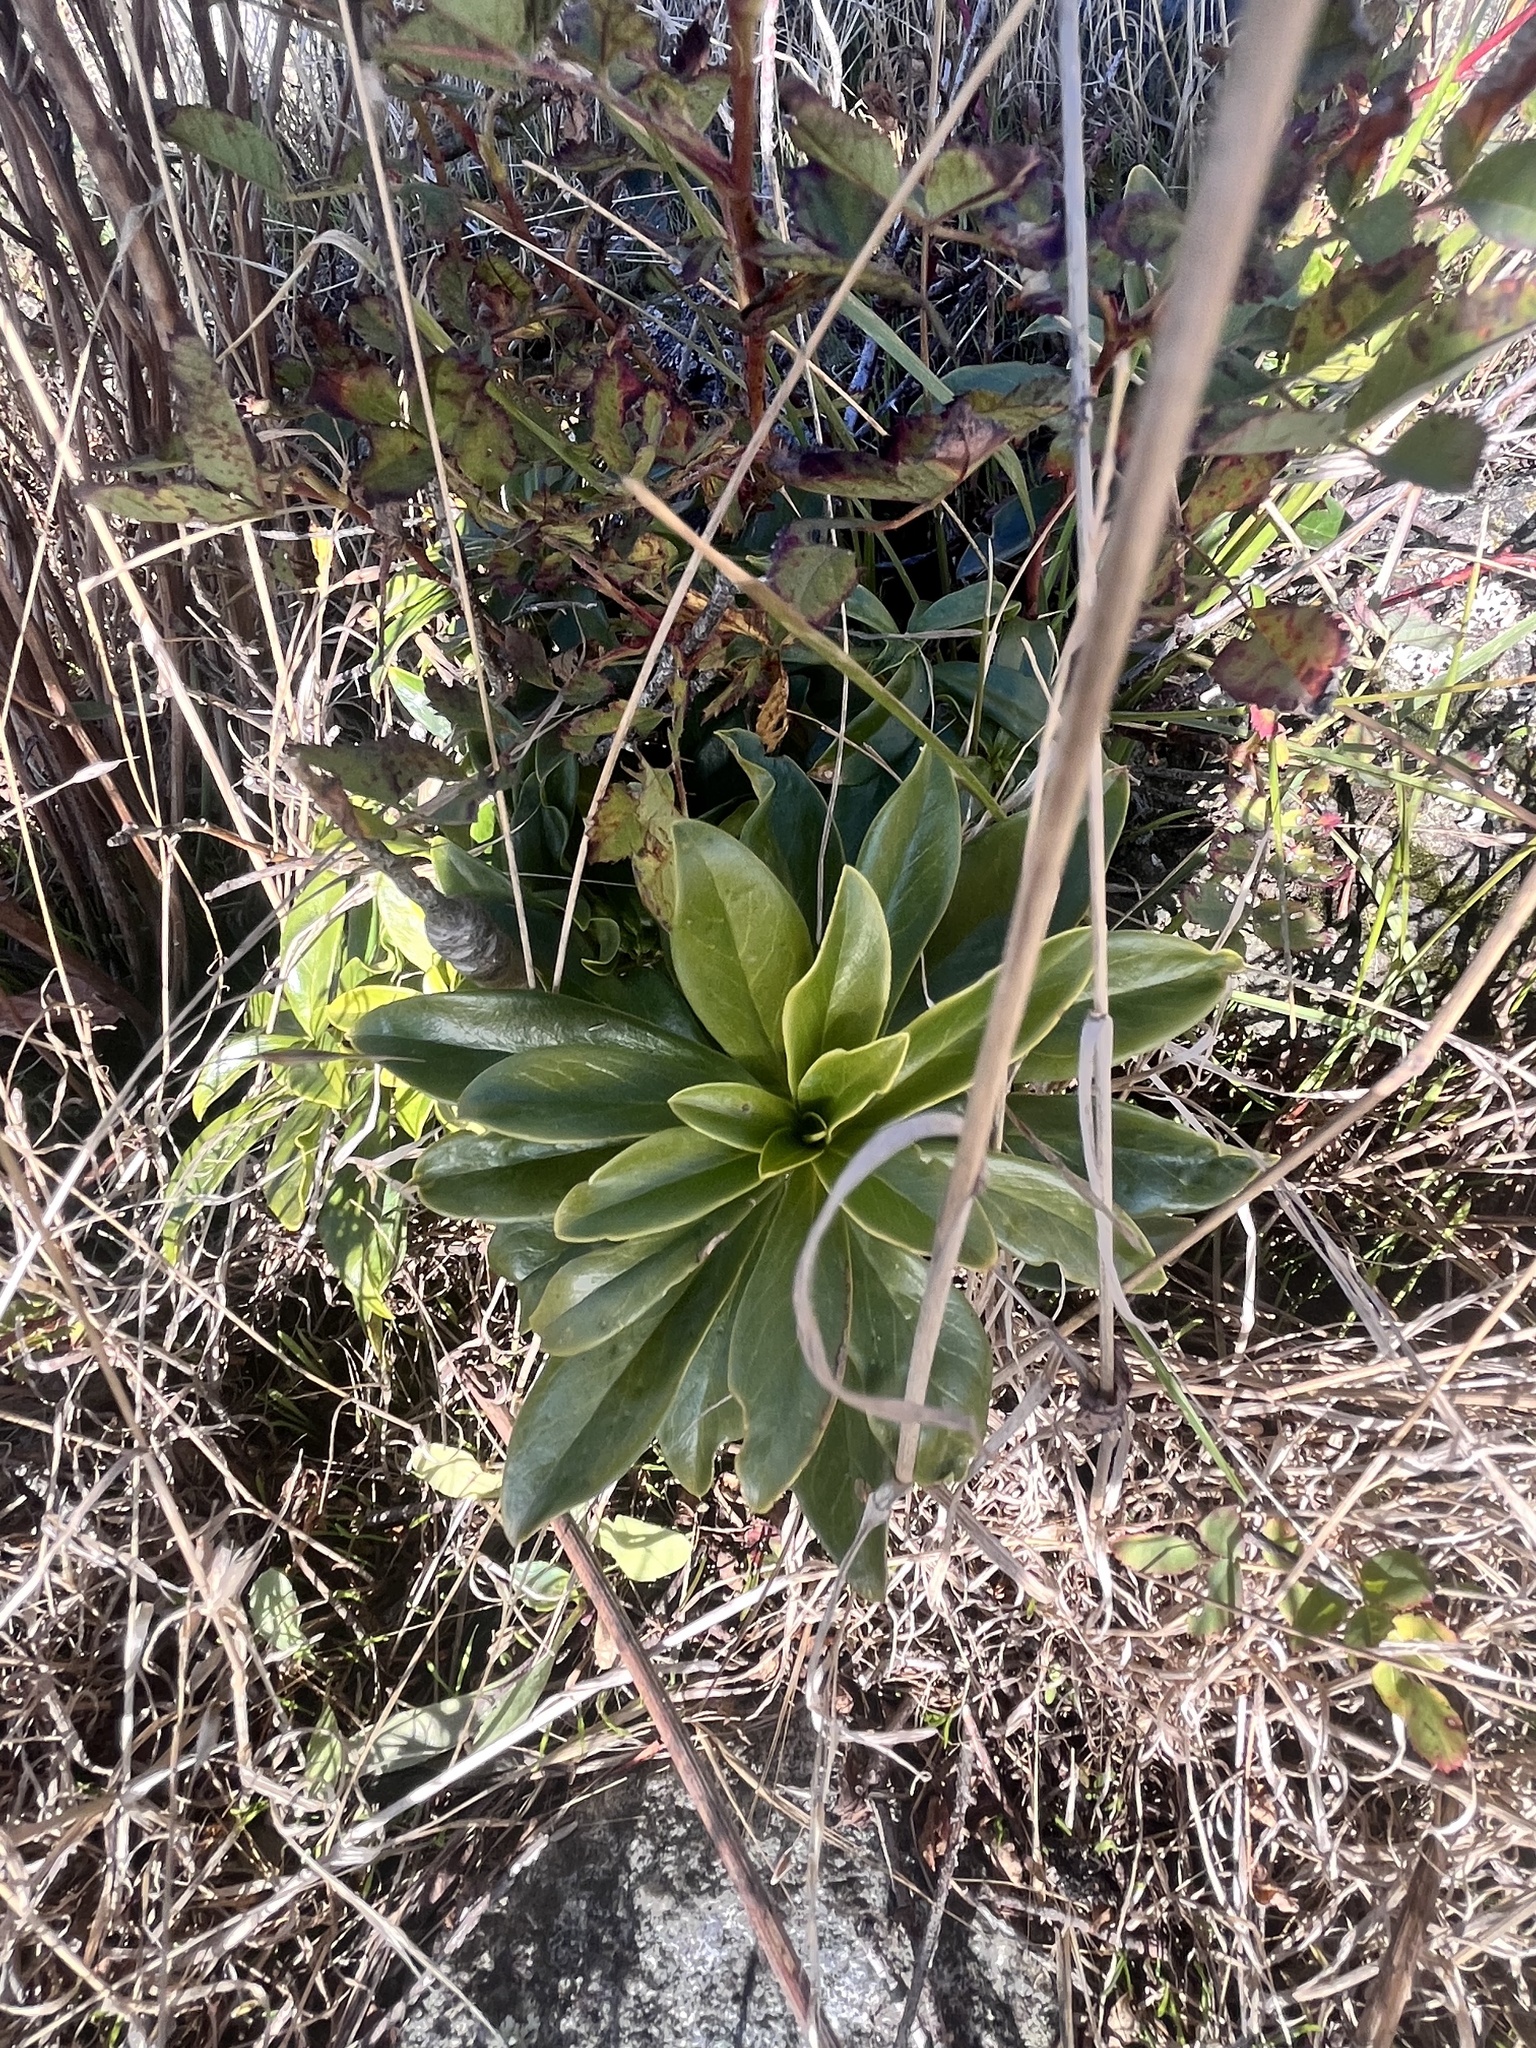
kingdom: Plantae
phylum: Tracheophyta
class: Magnoliopsida
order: Malvales
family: Thymelaeaceae
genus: Daphne
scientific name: Daphne laureola
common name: Spurge-laurel
